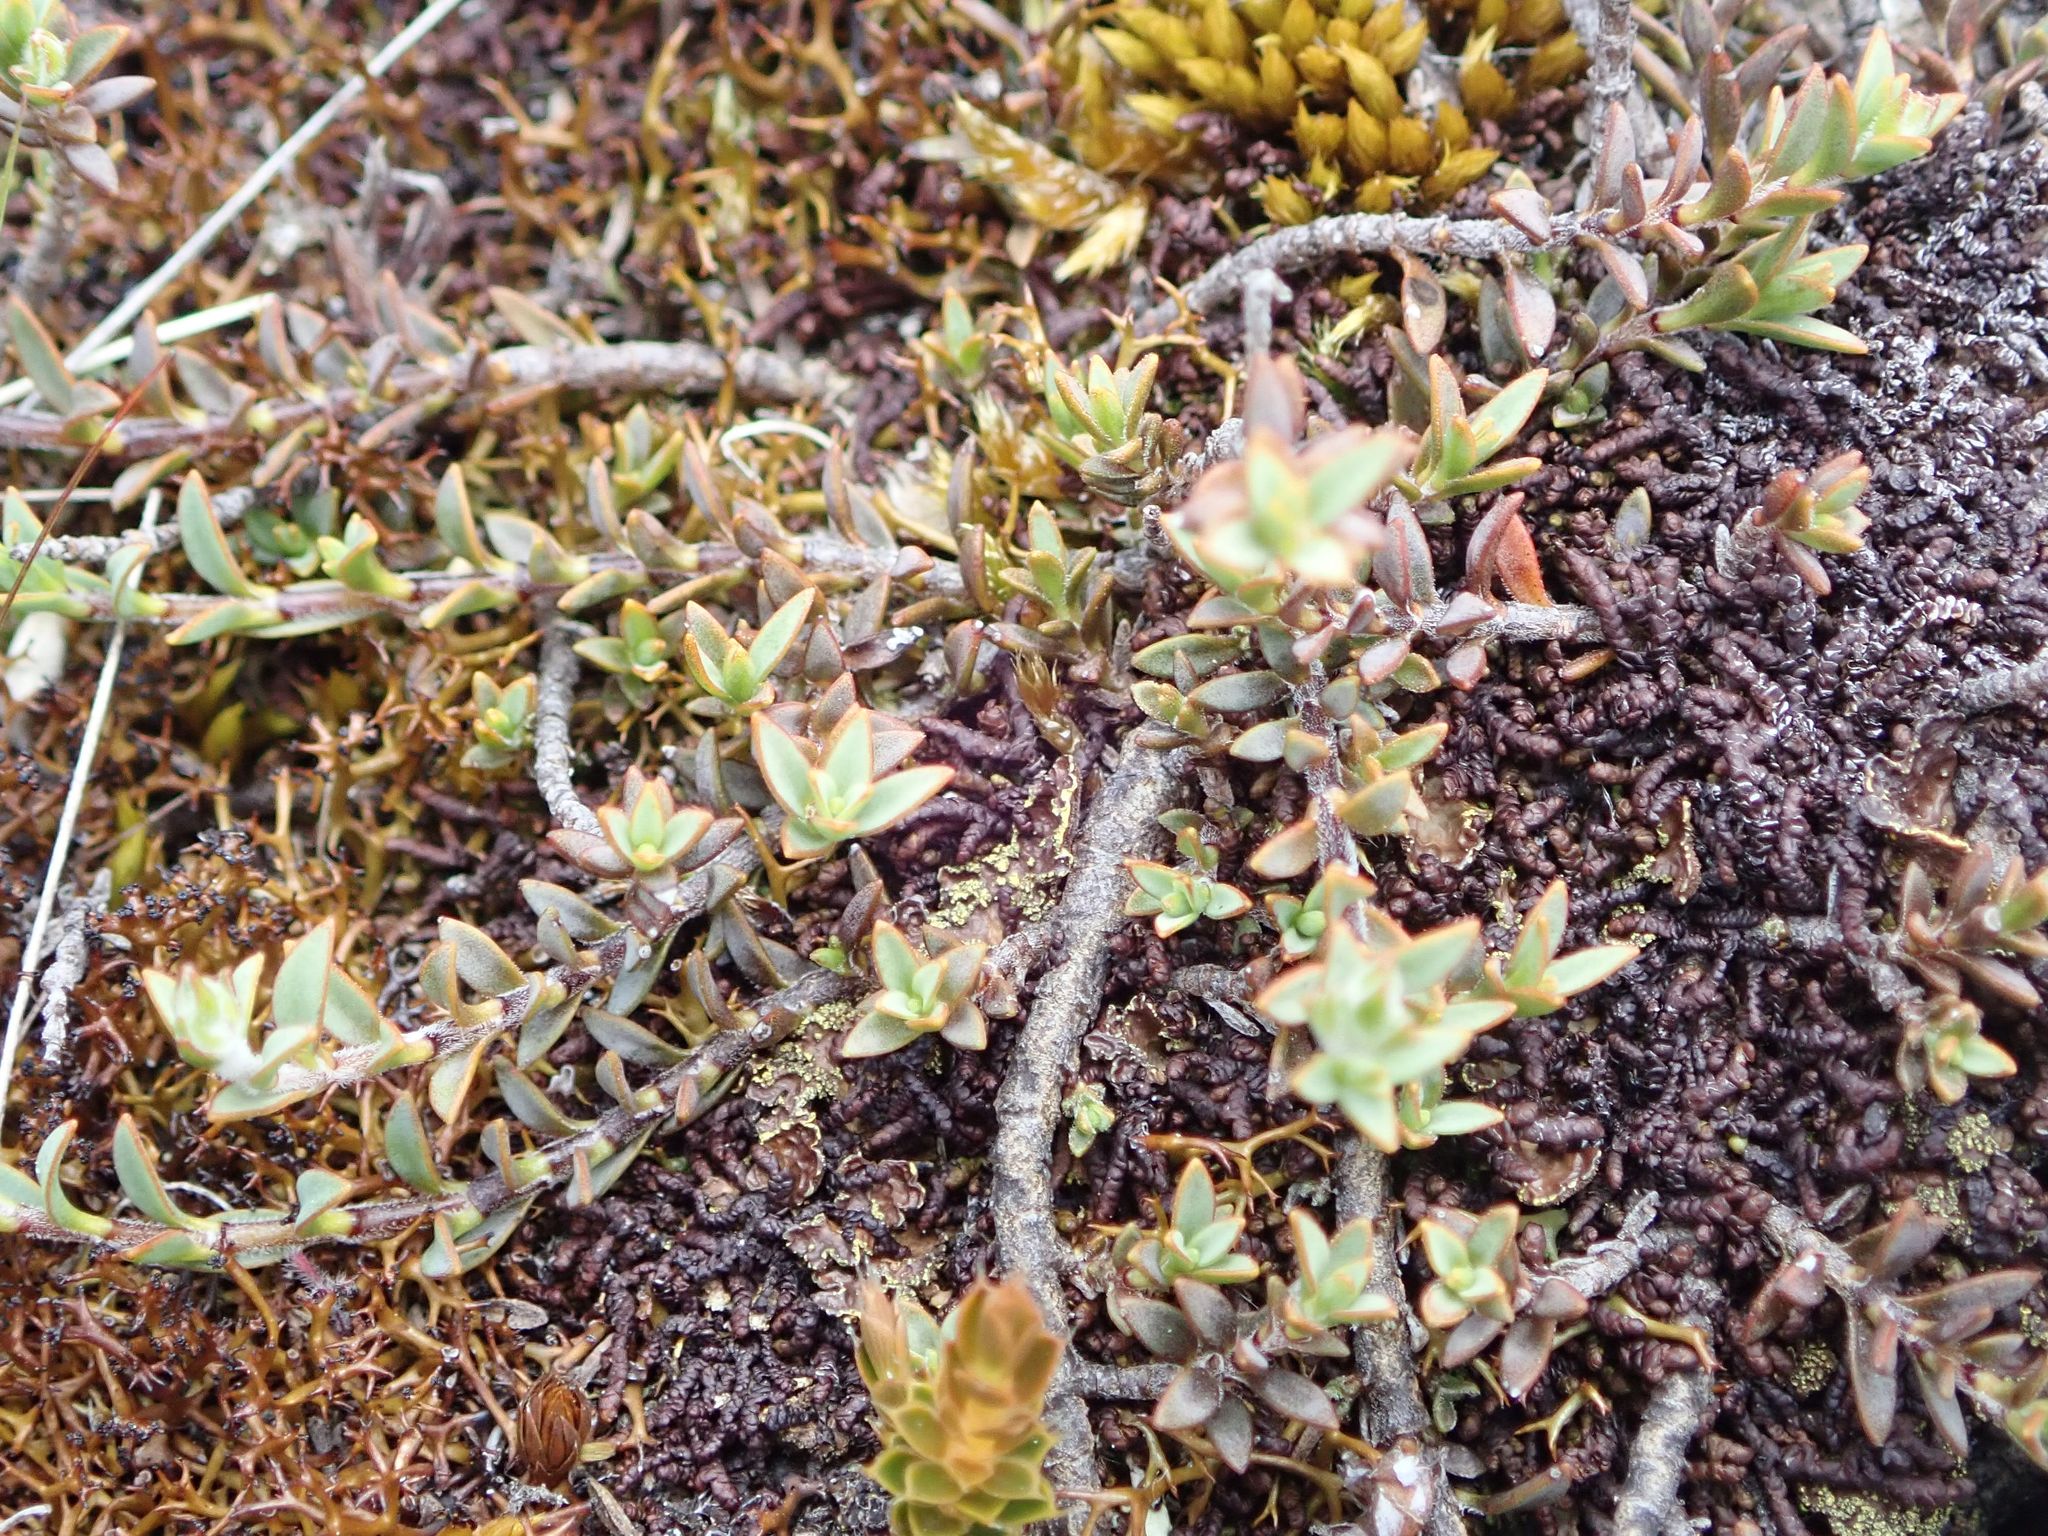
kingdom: Plantae
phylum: Tracheophyta
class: Magnoliopsida
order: Lamiales
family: Plantaginaceae
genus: Veronica
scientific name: Veronica pimeleoides
